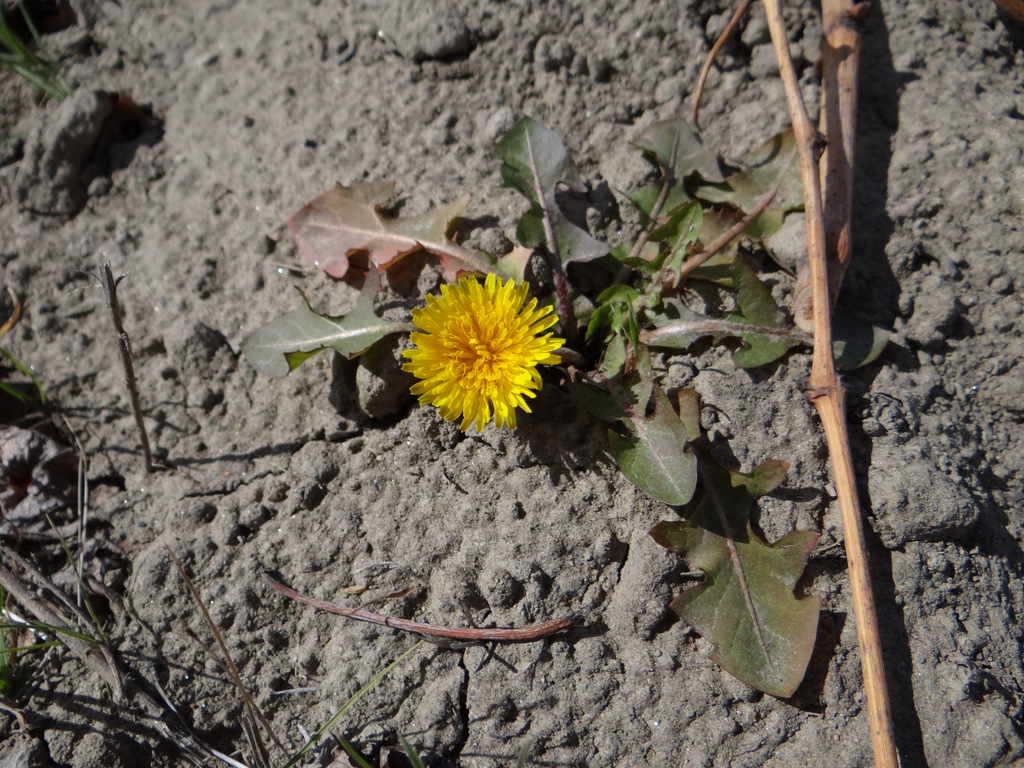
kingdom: Plantae
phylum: Tracheophyta
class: Magnoliopsida
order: Asterales
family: Asteraceae
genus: Taraxacum
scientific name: Taraxacum officinale
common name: Common dandelion
